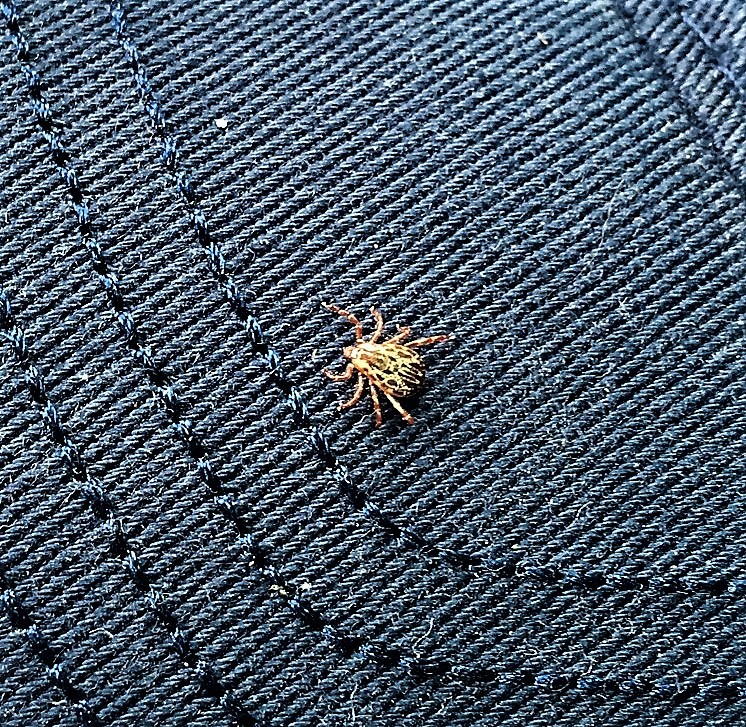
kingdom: Animalia
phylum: Arthropoda
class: Arachnida
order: Ixodida
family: Ixodidae
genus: Dermacentor
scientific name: Dermacentor variabilis
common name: American dog tick
